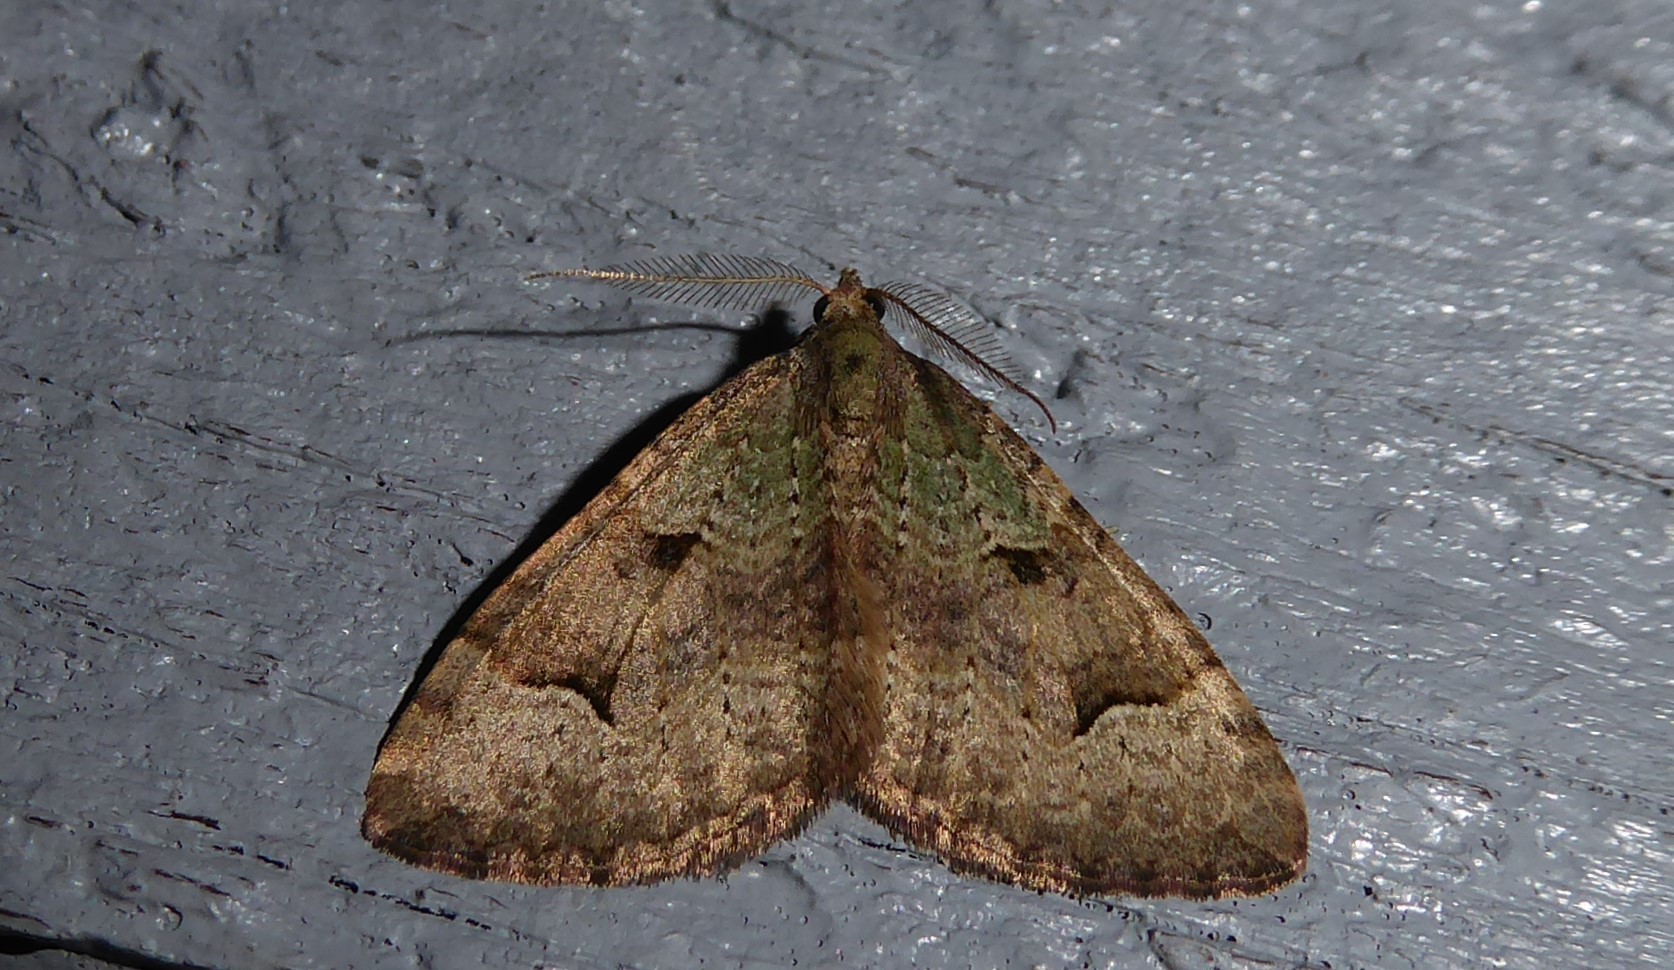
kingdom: Animalia
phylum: Arthropoda
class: Insecta
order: Lepidoptera
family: Geometridae
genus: Epyaxa
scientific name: Epyaxa rosearia
